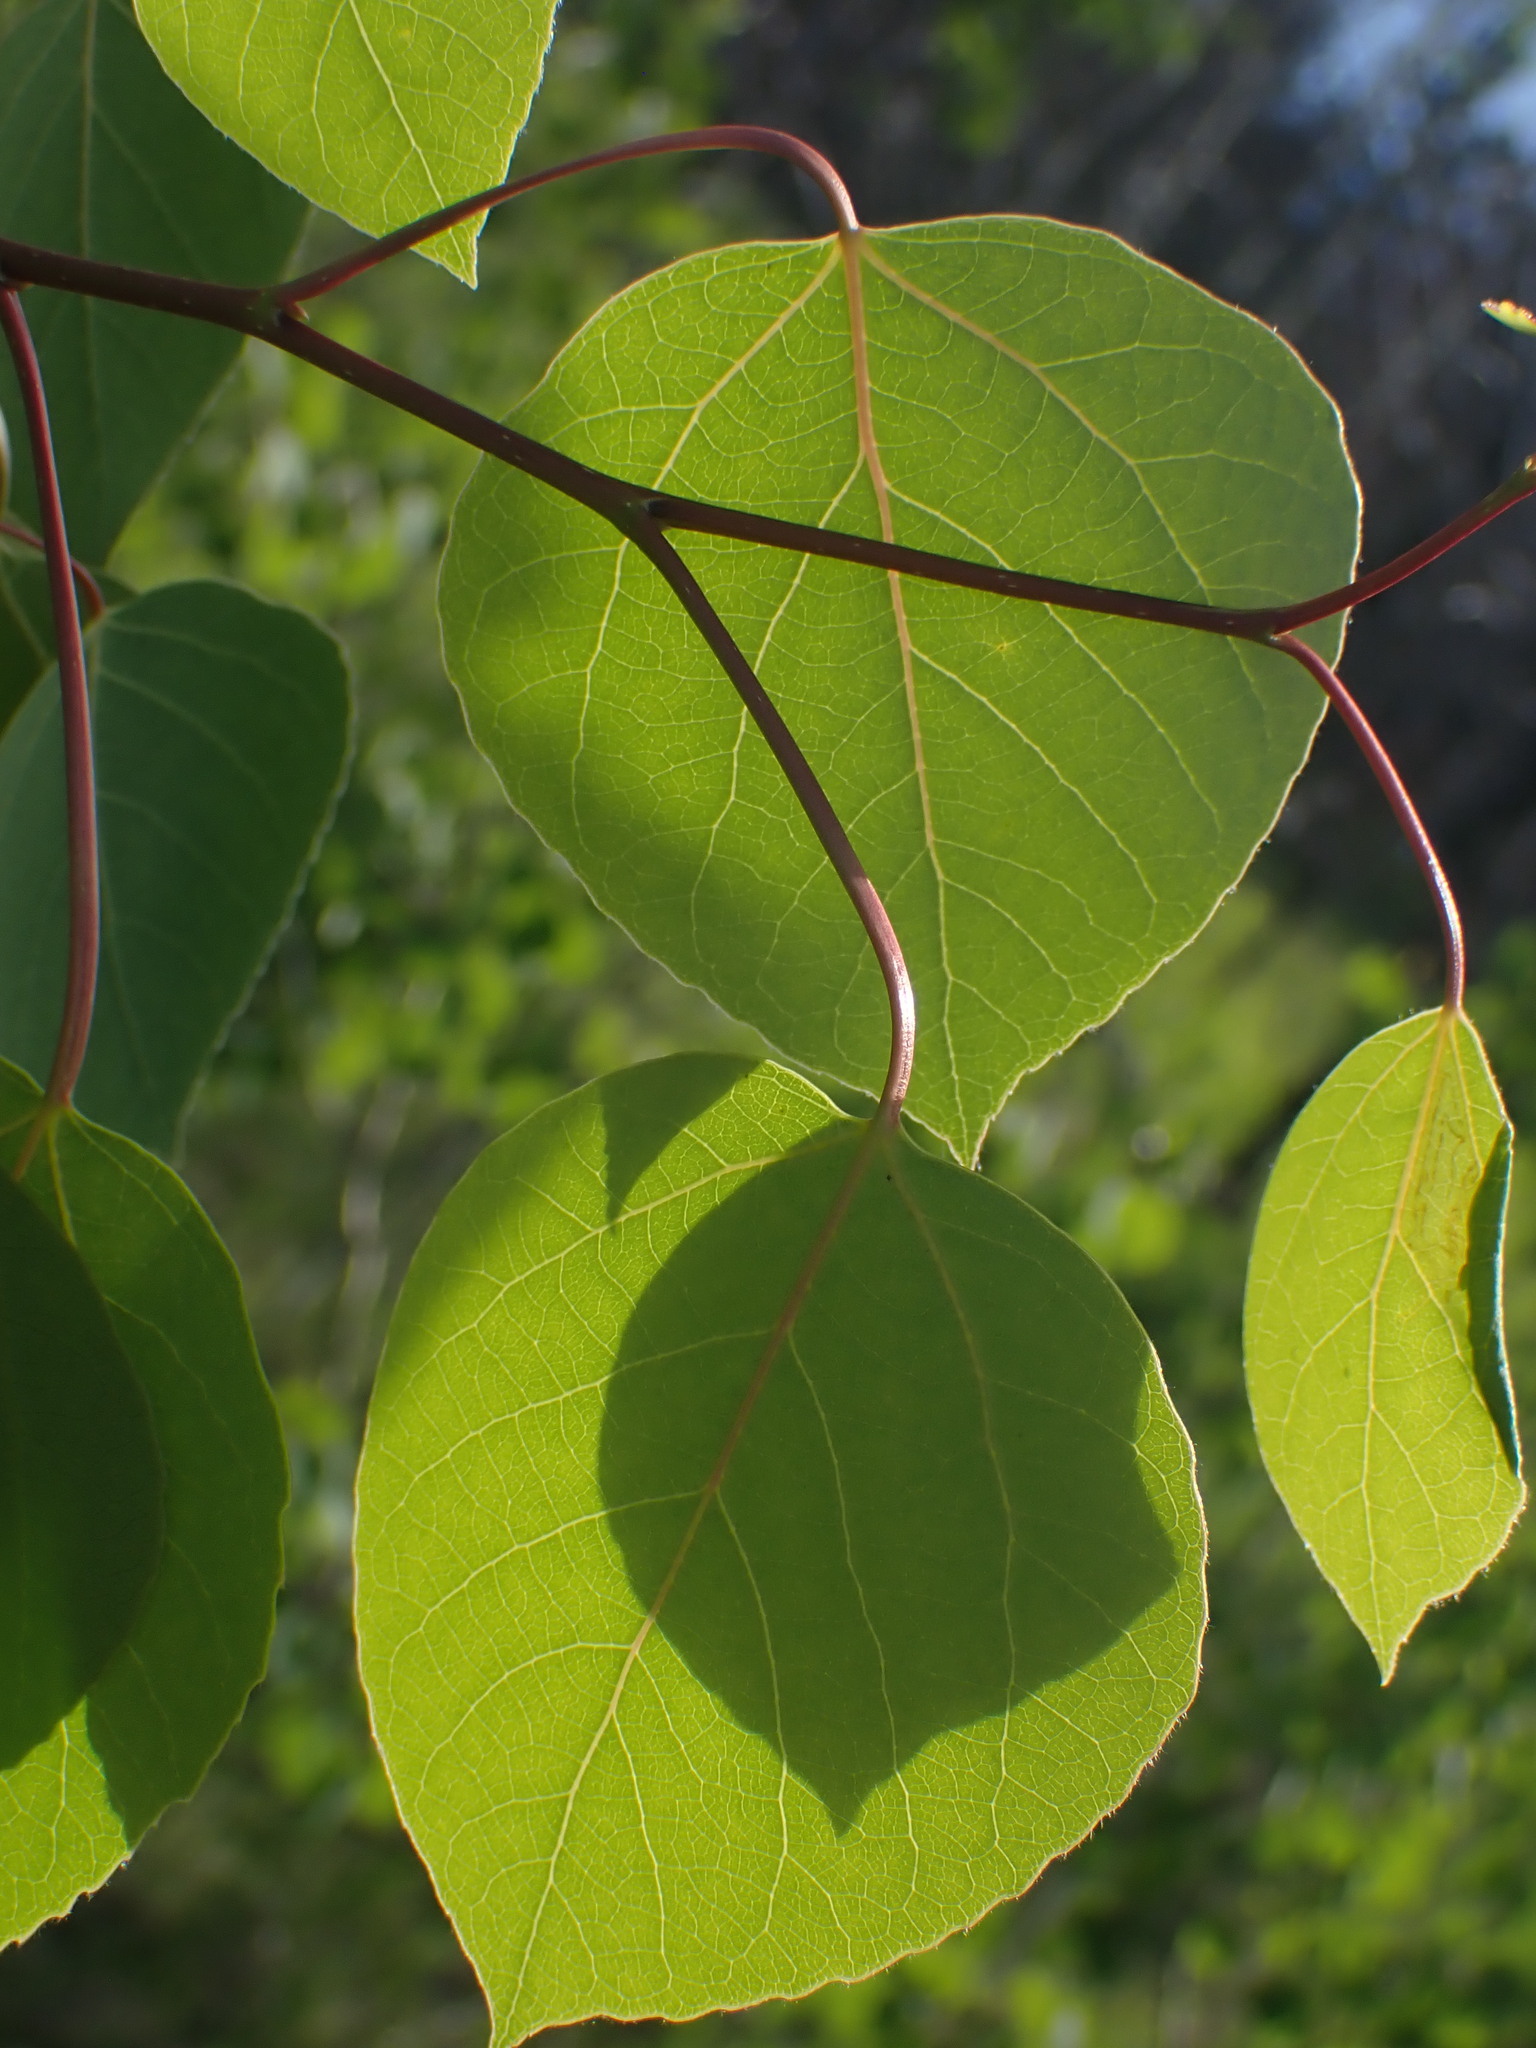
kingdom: Plantae
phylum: Tracheophyta
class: Magnoliopsida
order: Malpighiales
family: Salicaceae
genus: Populus
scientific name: Populus tremuloides
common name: Quaking aspen
